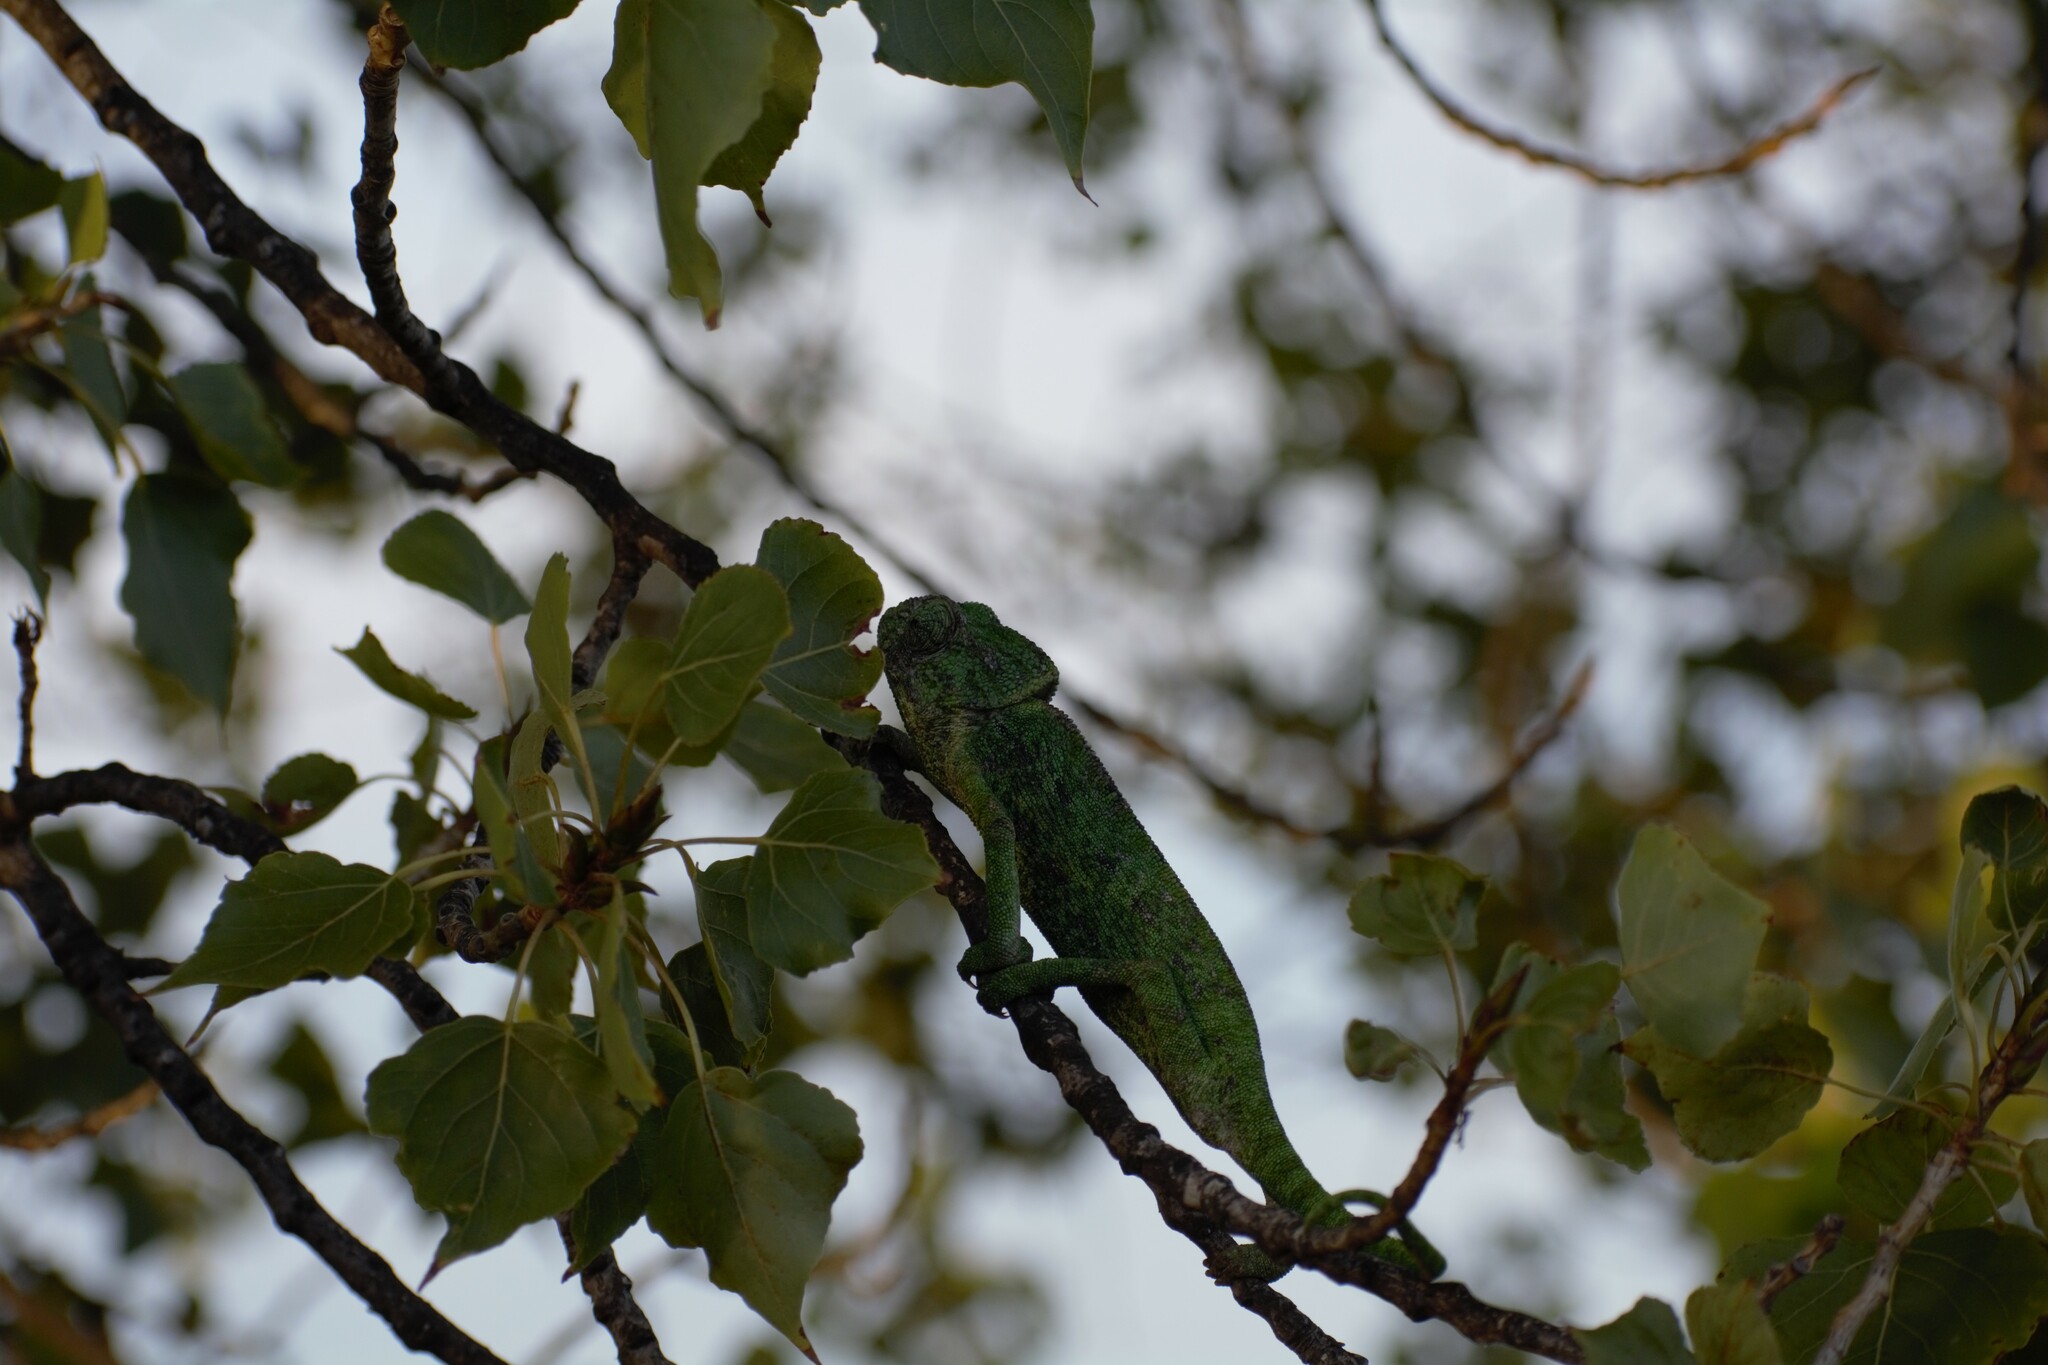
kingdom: Animalia
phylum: Chordata
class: Squamata
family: Chamaeleonidae
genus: Chamaeleo
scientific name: Chamaeleo chamaeleon
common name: Mediterranean chameleon
